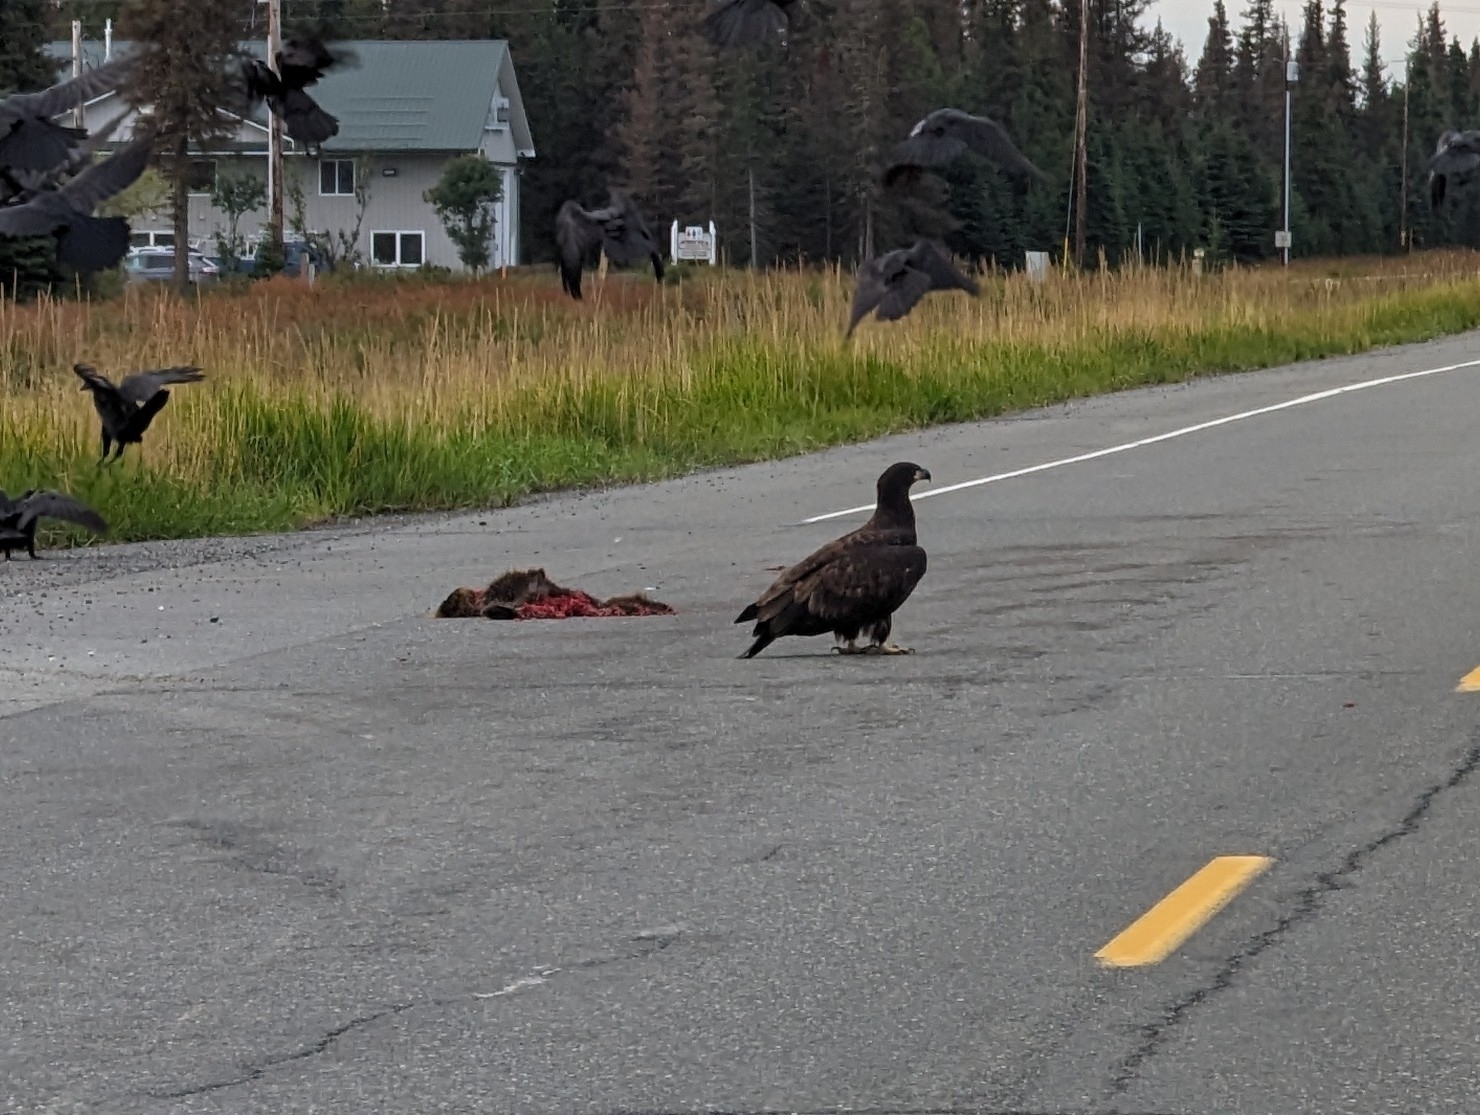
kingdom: Animalia
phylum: Chordata
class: Aves
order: Accipitriformes
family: Accipitridae
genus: Haliaeetus
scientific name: Haliaeetus leucocephalus
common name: Bald eagle
